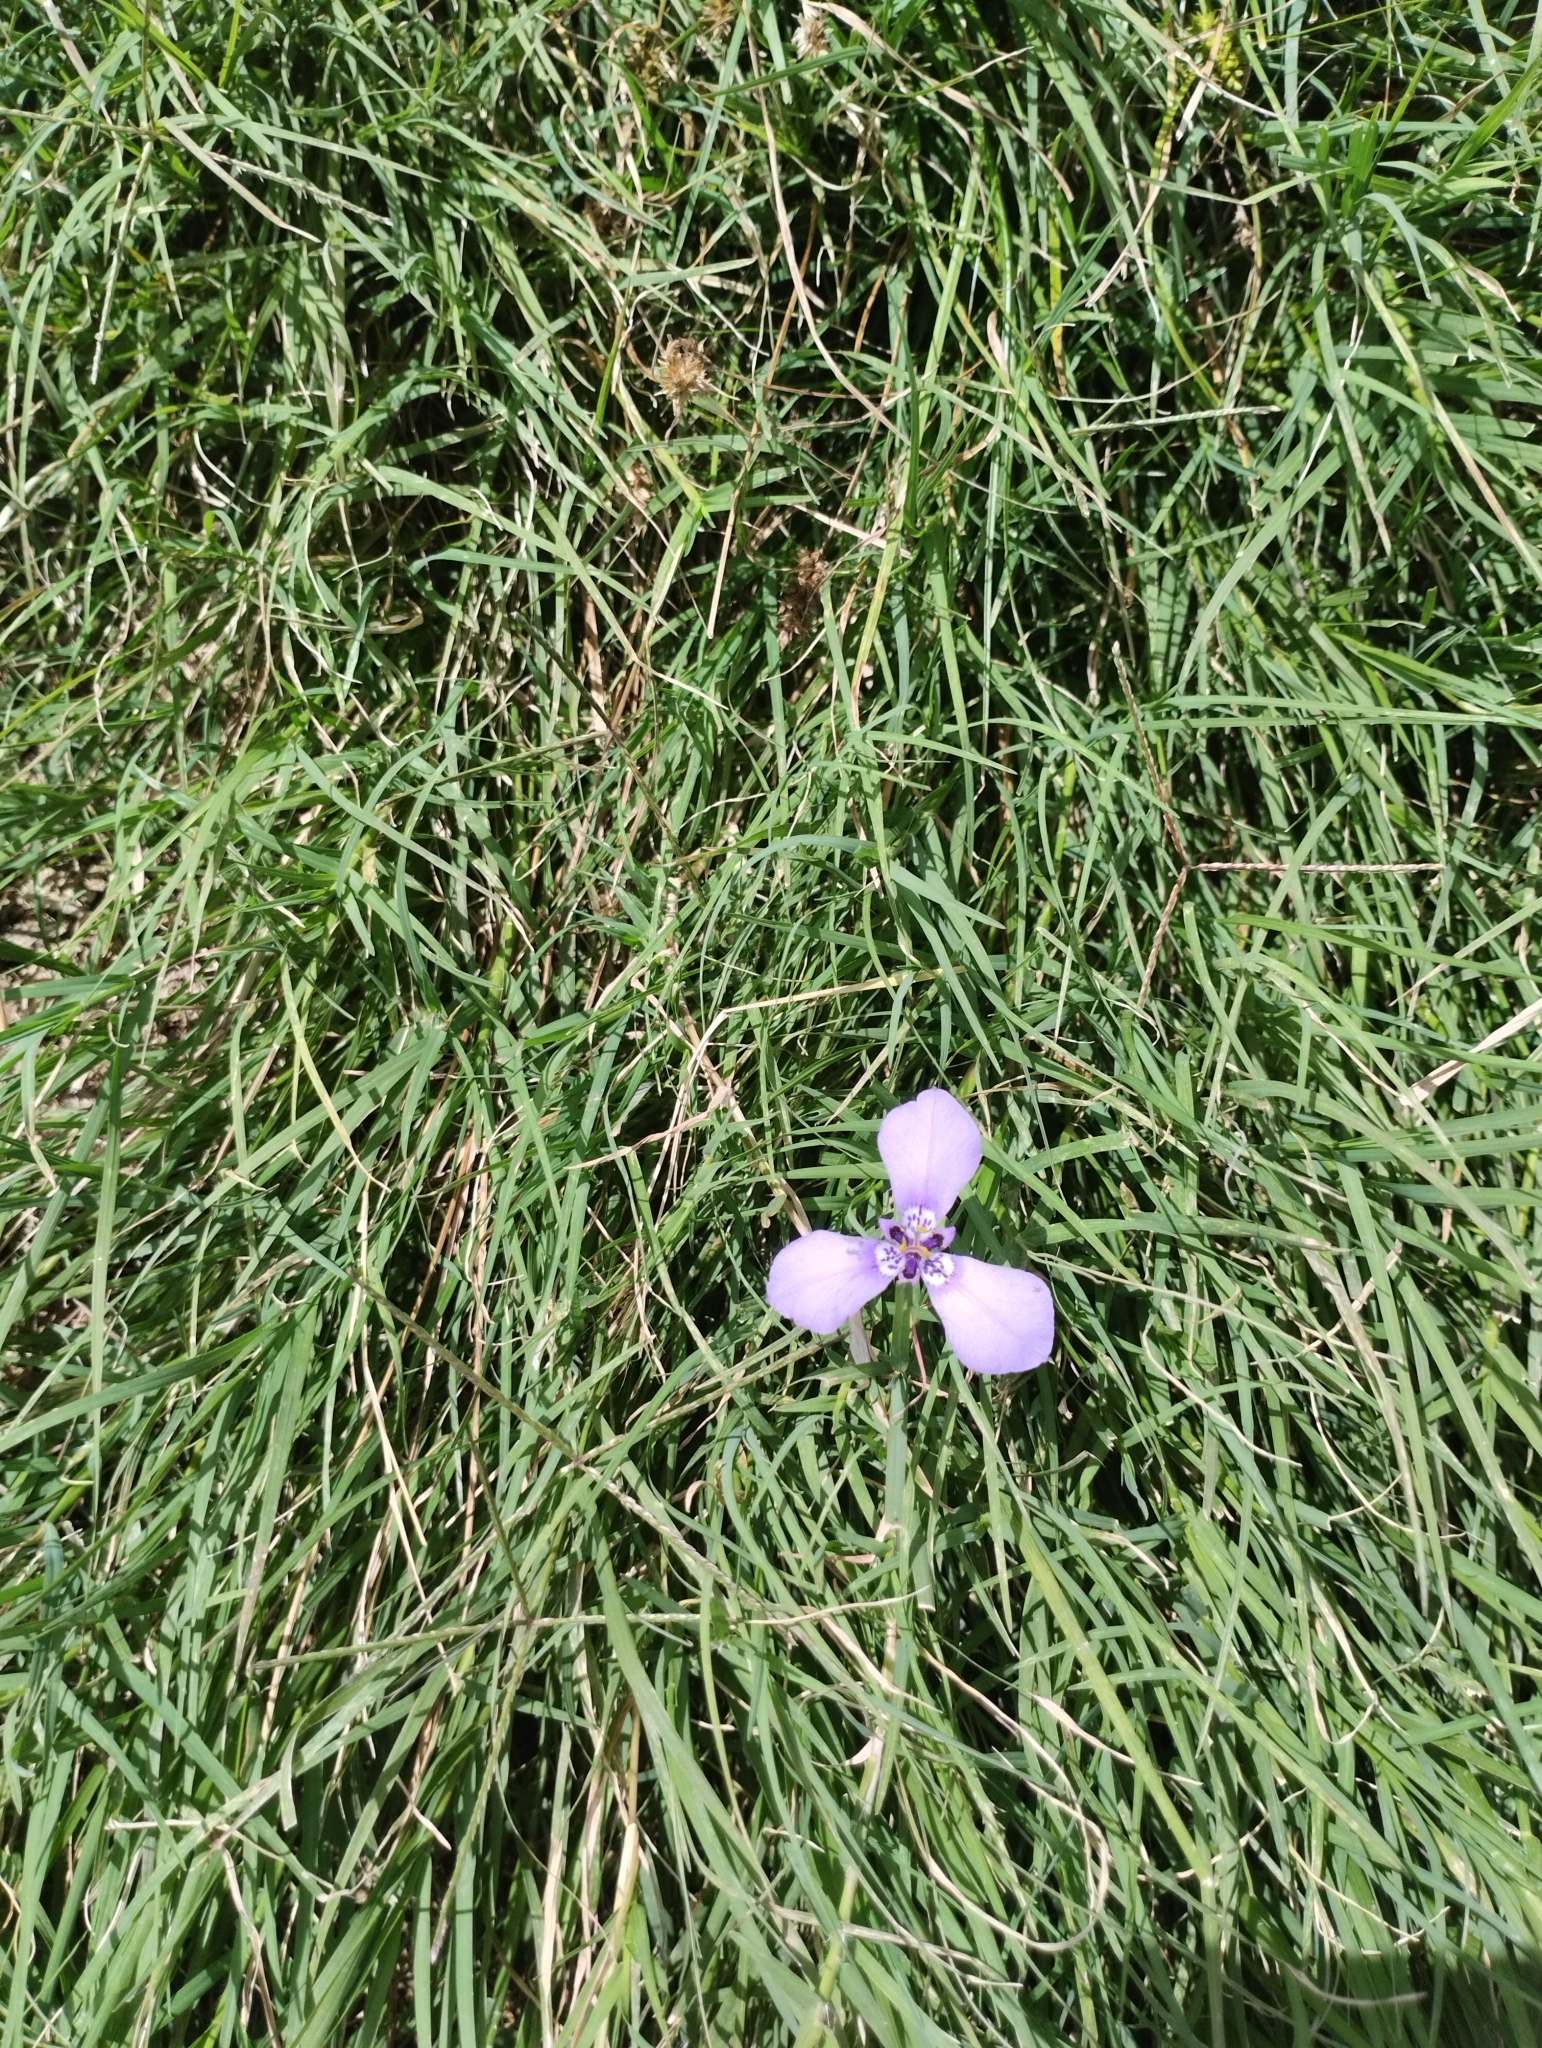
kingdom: Plantae
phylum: Tracheophyta
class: Liliopsida
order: Asparagales
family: Iridaceae
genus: Herbertia
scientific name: Herbertia lahue
